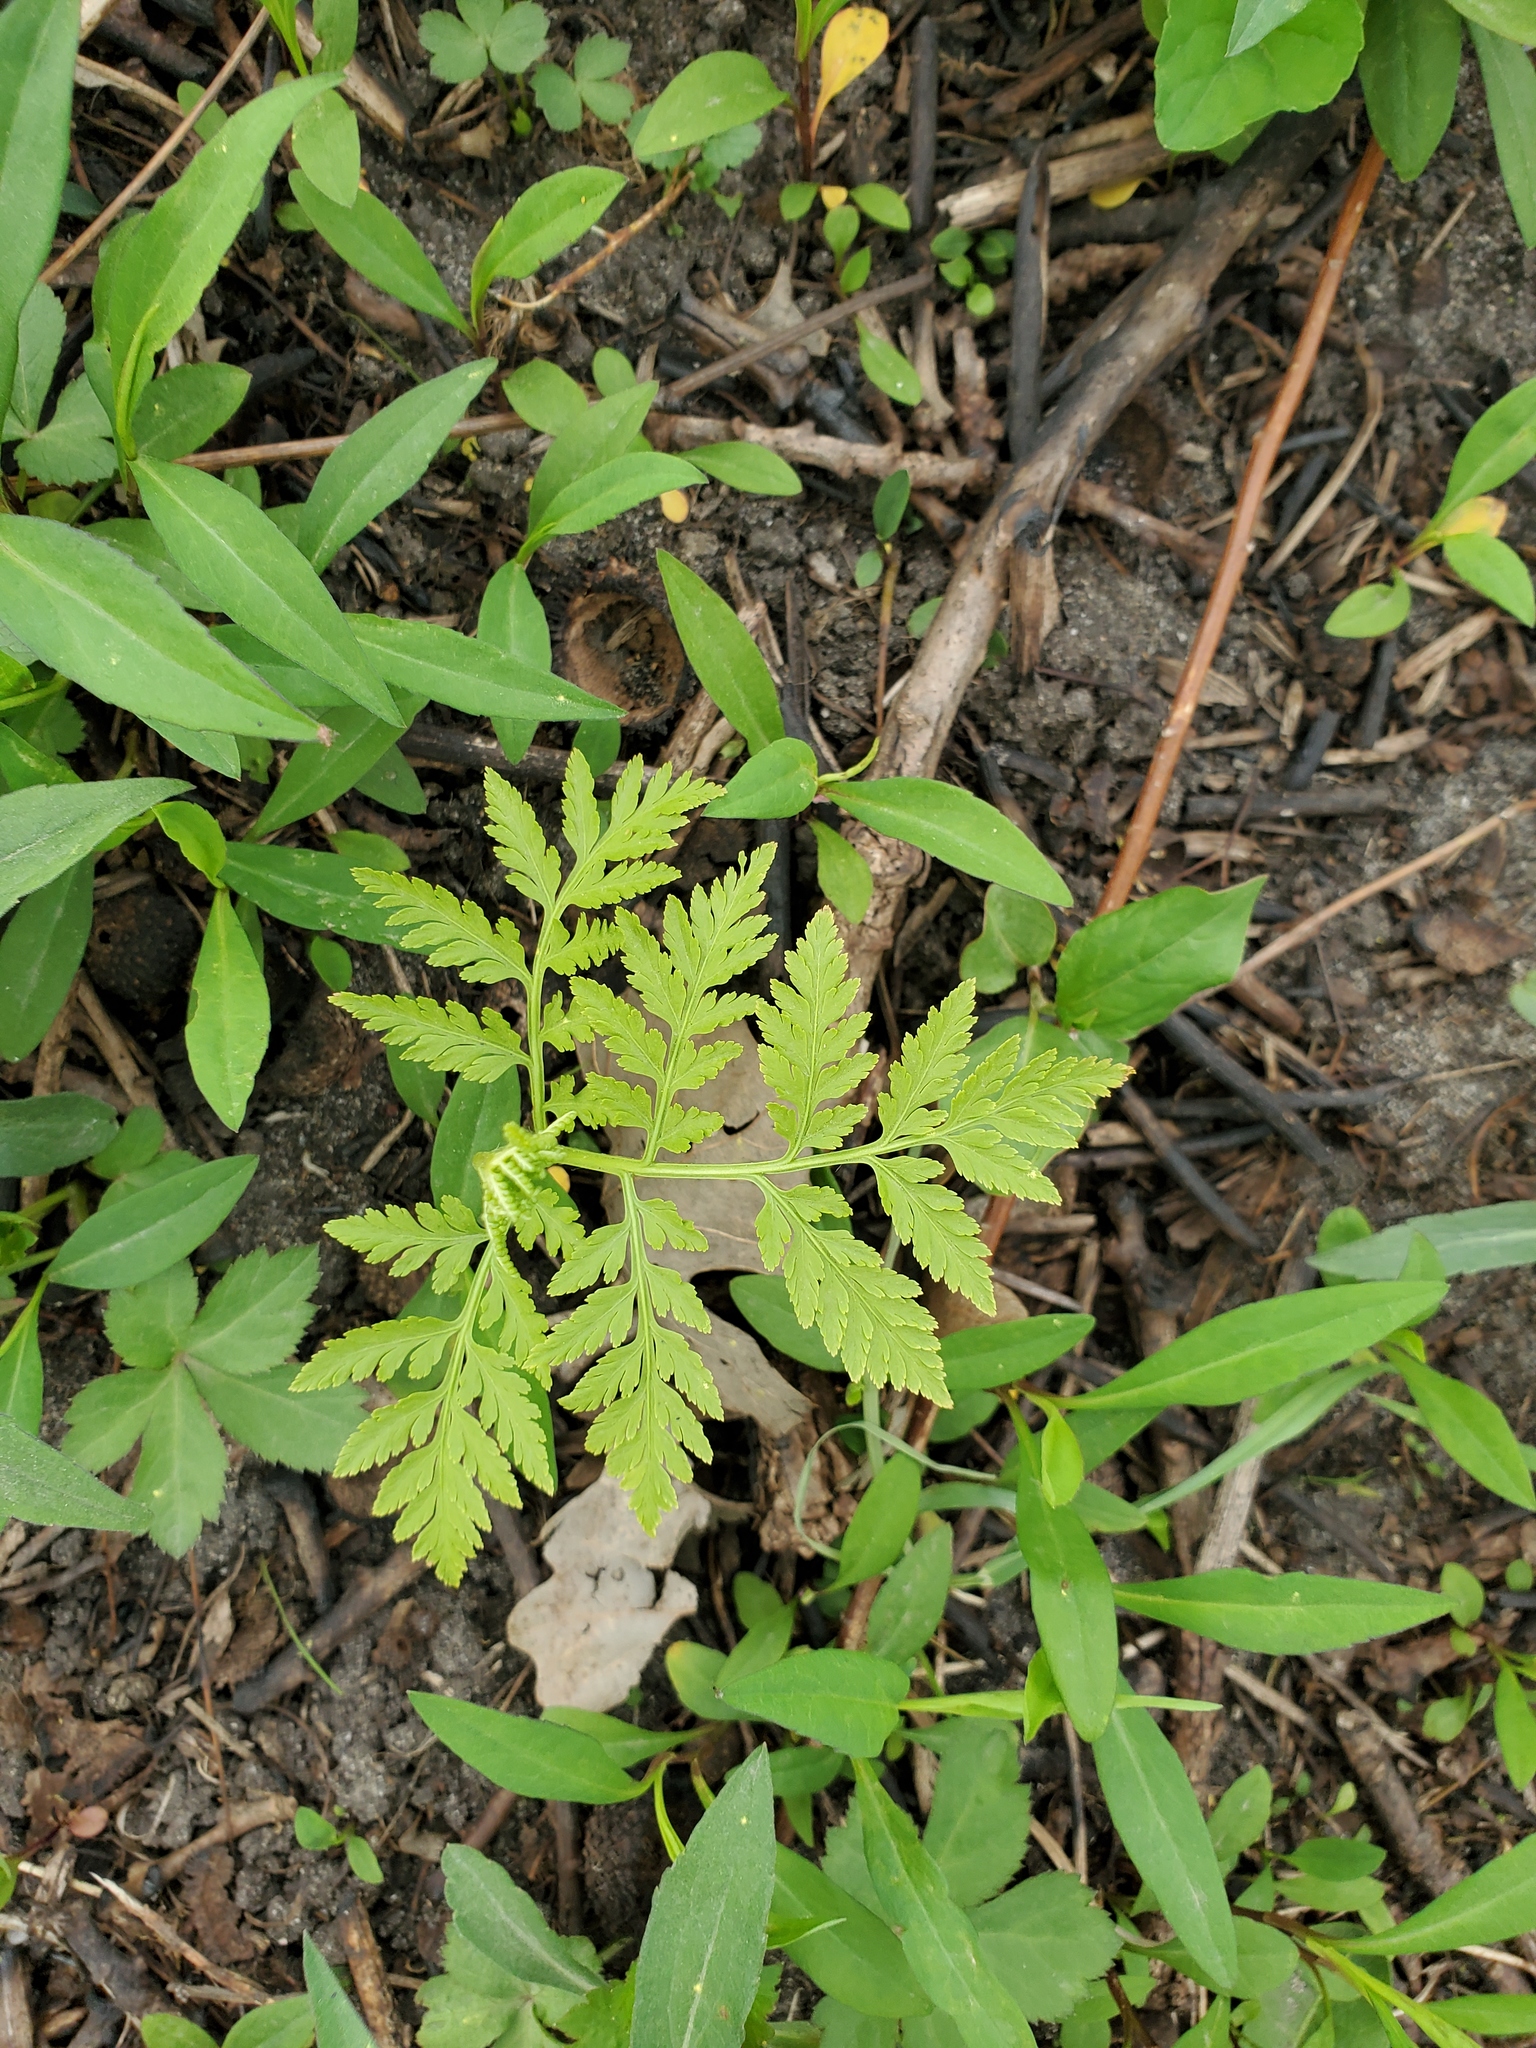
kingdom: Plantae
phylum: Tracheophyta
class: Polypodiopsida
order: Ophioglossales
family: Ophioglossaceae
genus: Botrypus
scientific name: Botrypus virginianus
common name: Common grapefern
